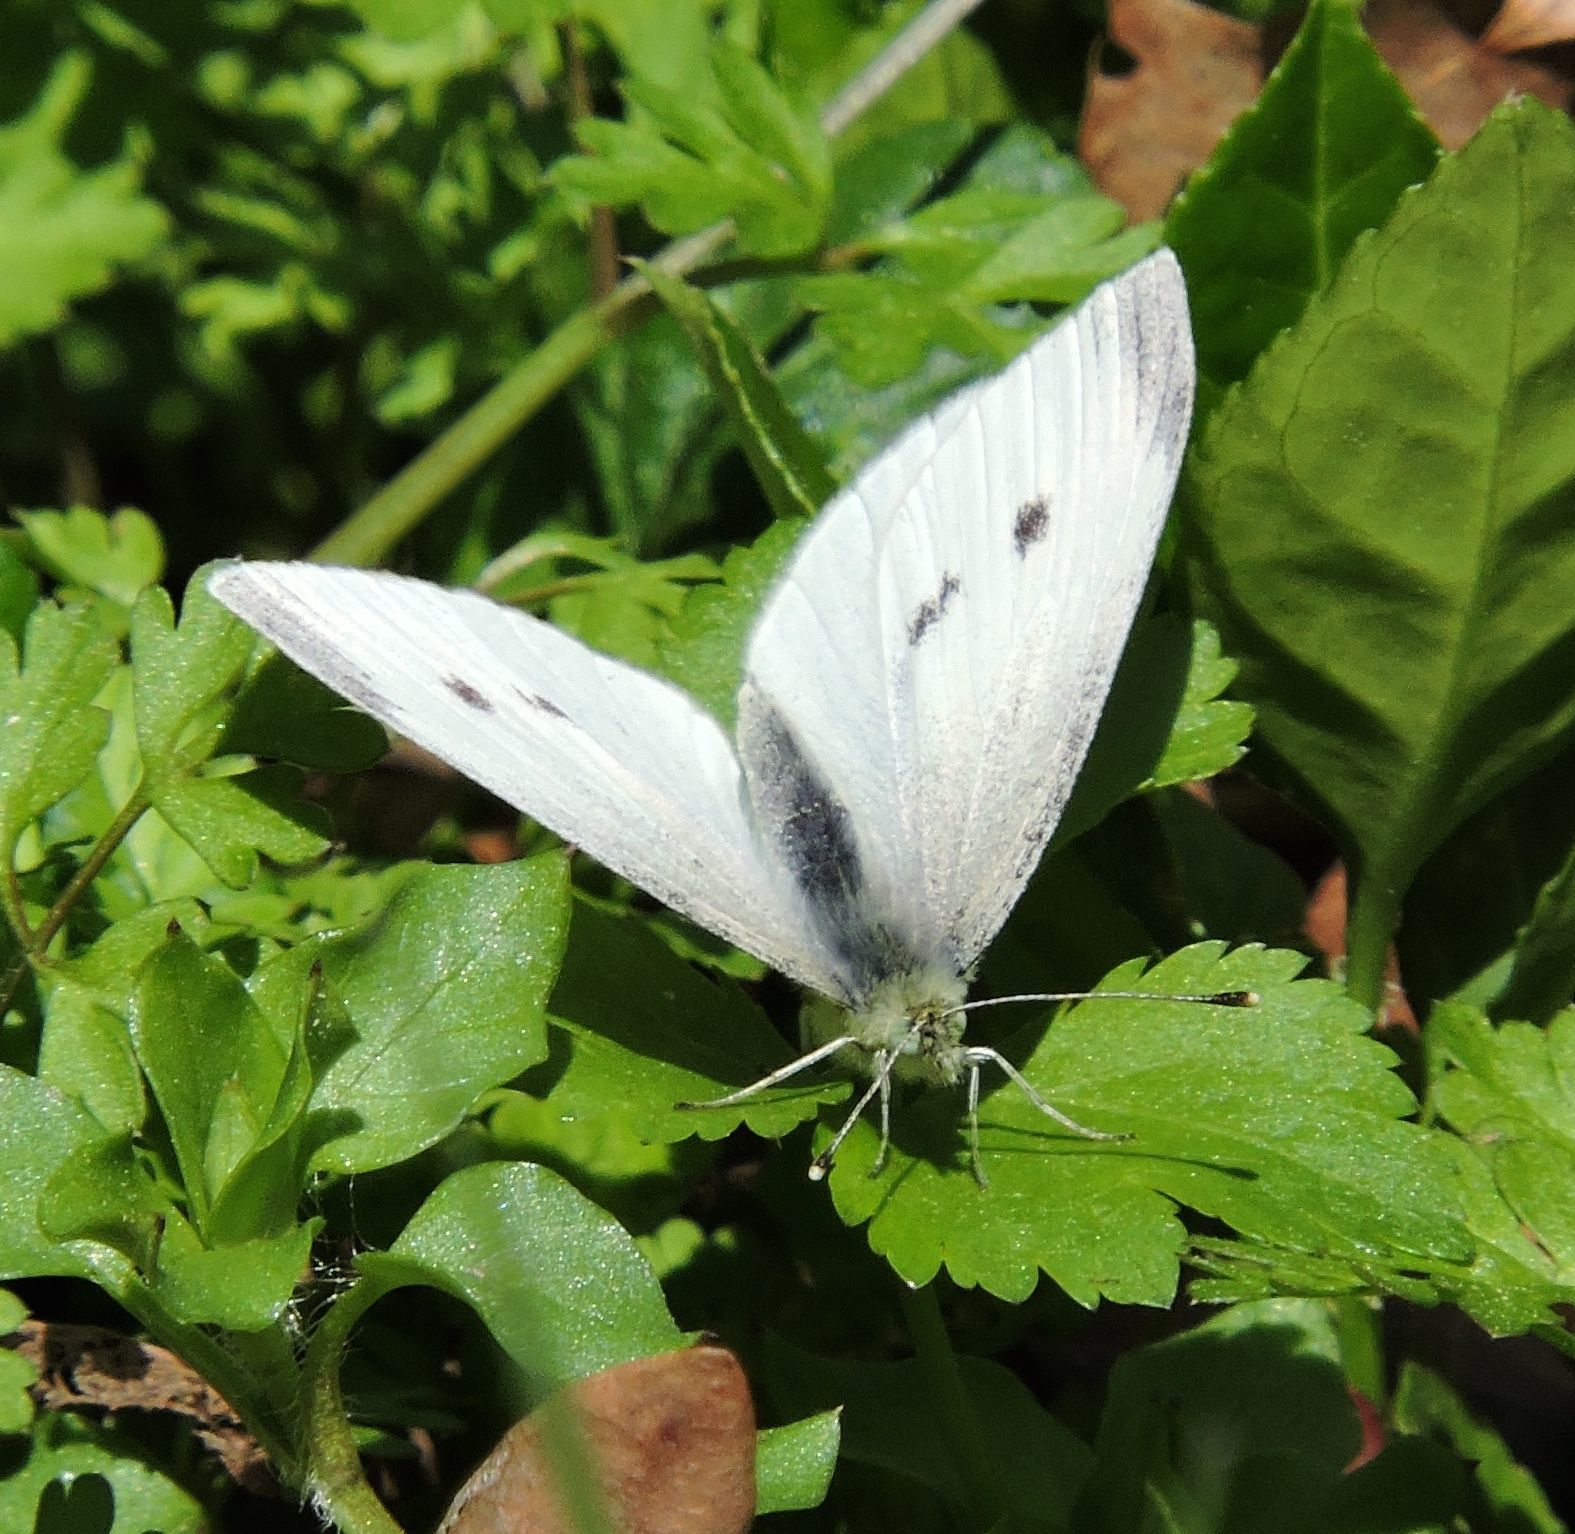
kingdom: Animalia
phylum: Arthropoda
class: Insecta
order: Lepidoptera
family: Pieridae
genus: Pieris
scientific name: Pieris rapae
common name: Small white
